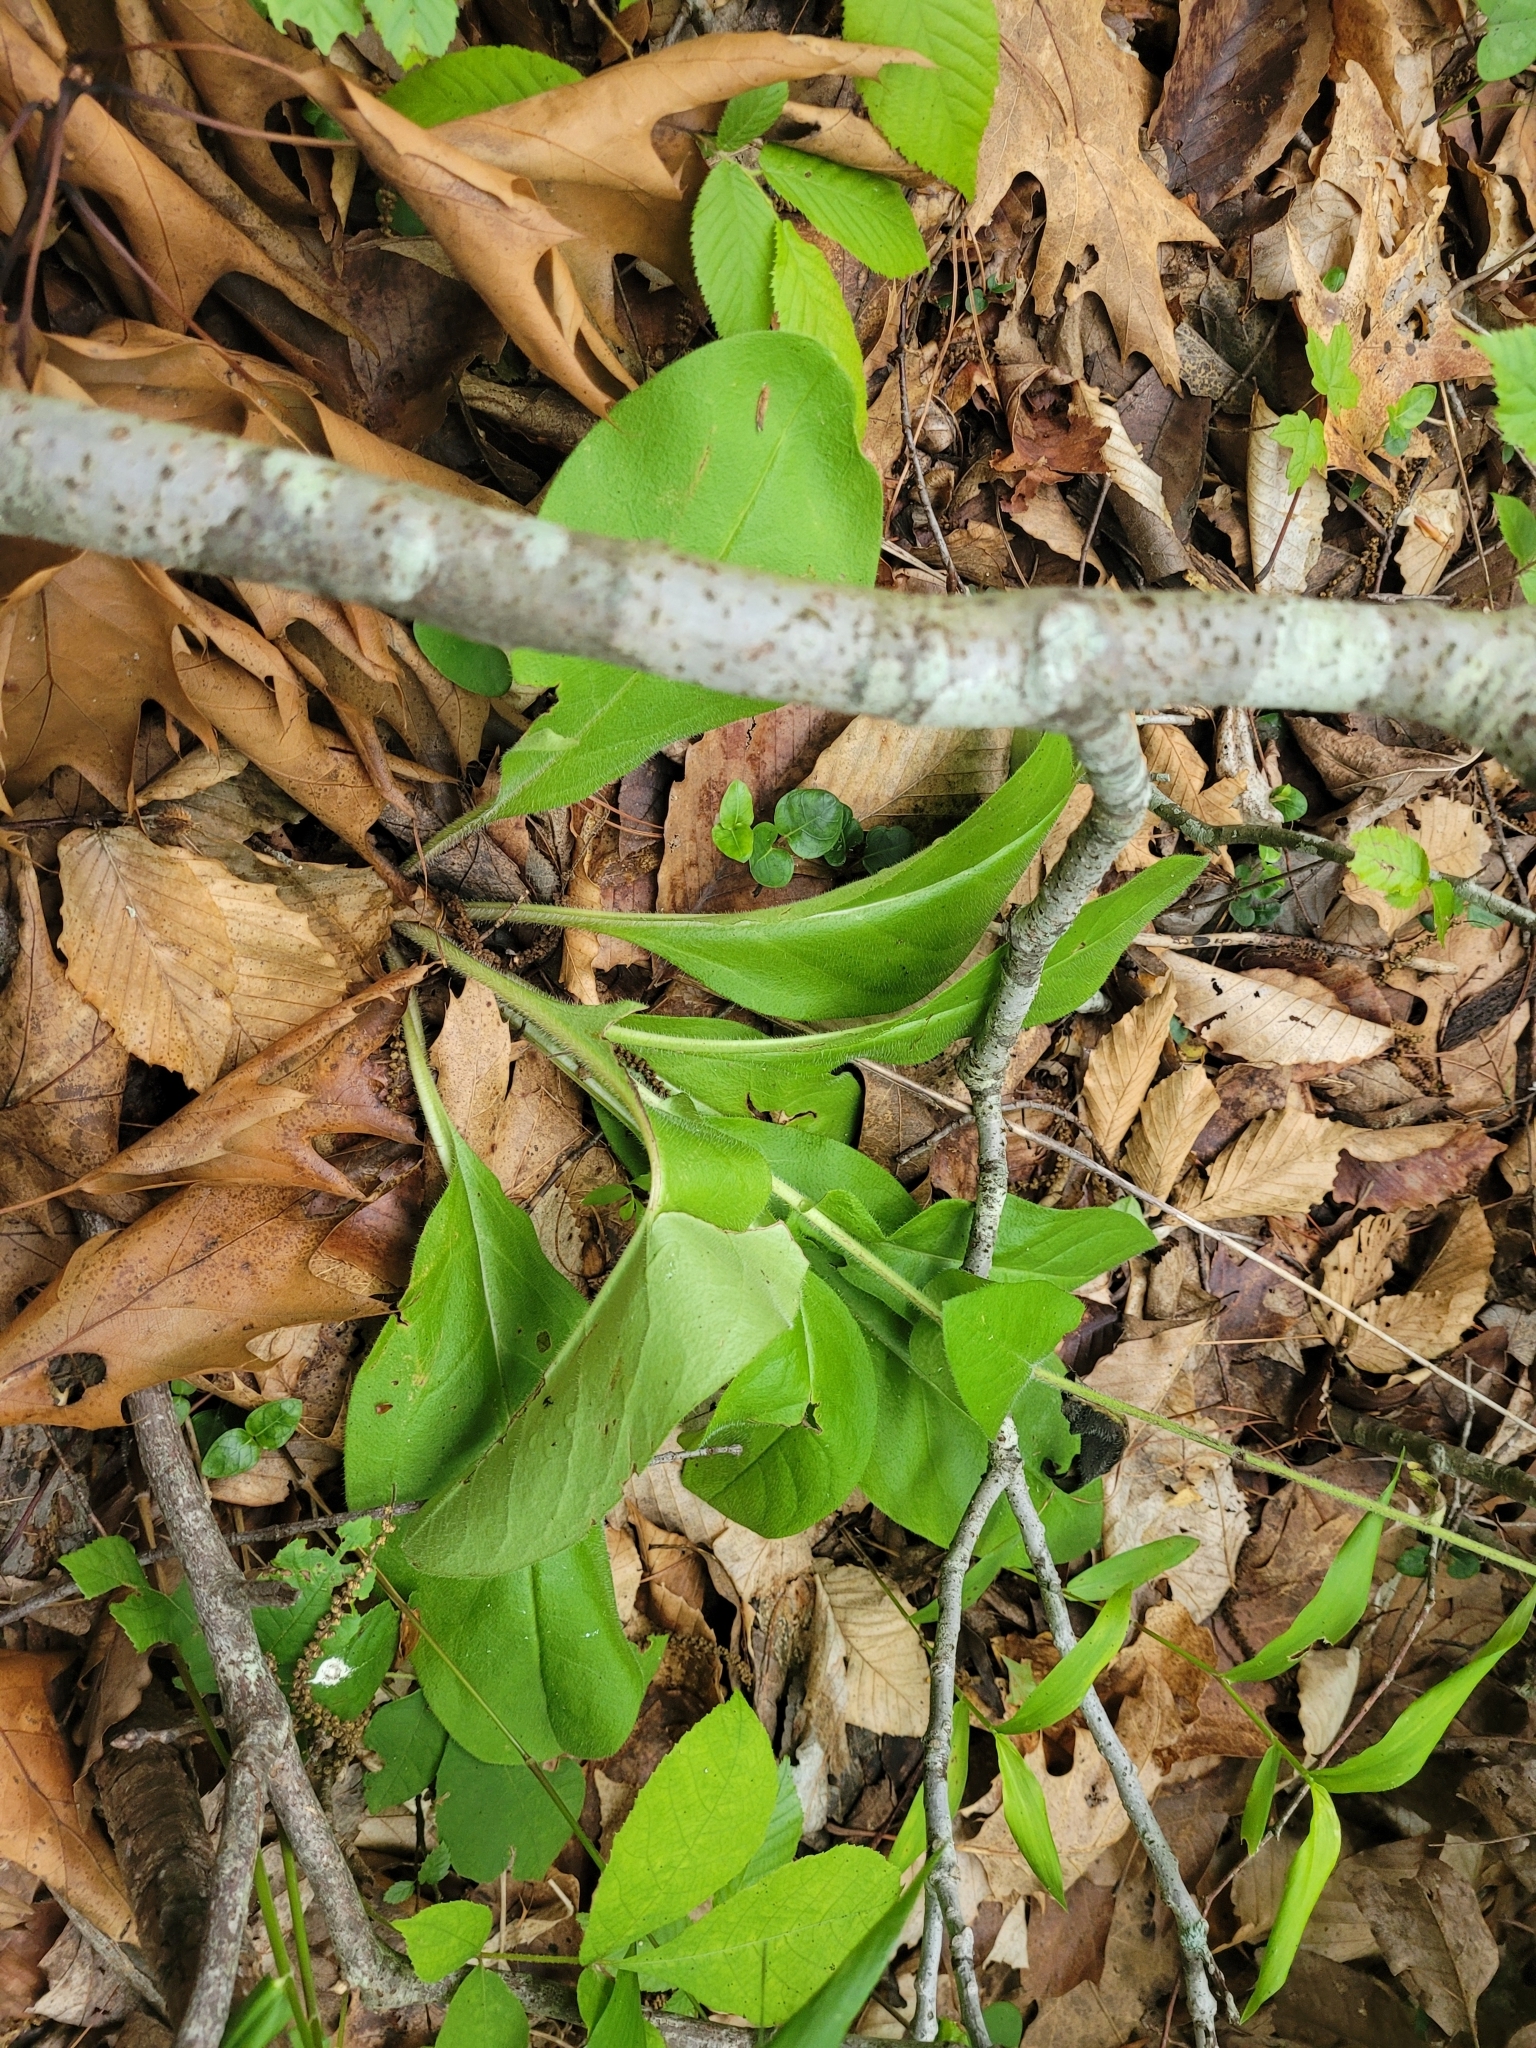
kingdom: Plantae
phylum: Tracheophyta
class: Magnoliopsida
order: Boraginales
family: Boraginaceae
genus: Andersonglossum
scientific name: Andersonglossum virginianum
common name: Wild comfrey
